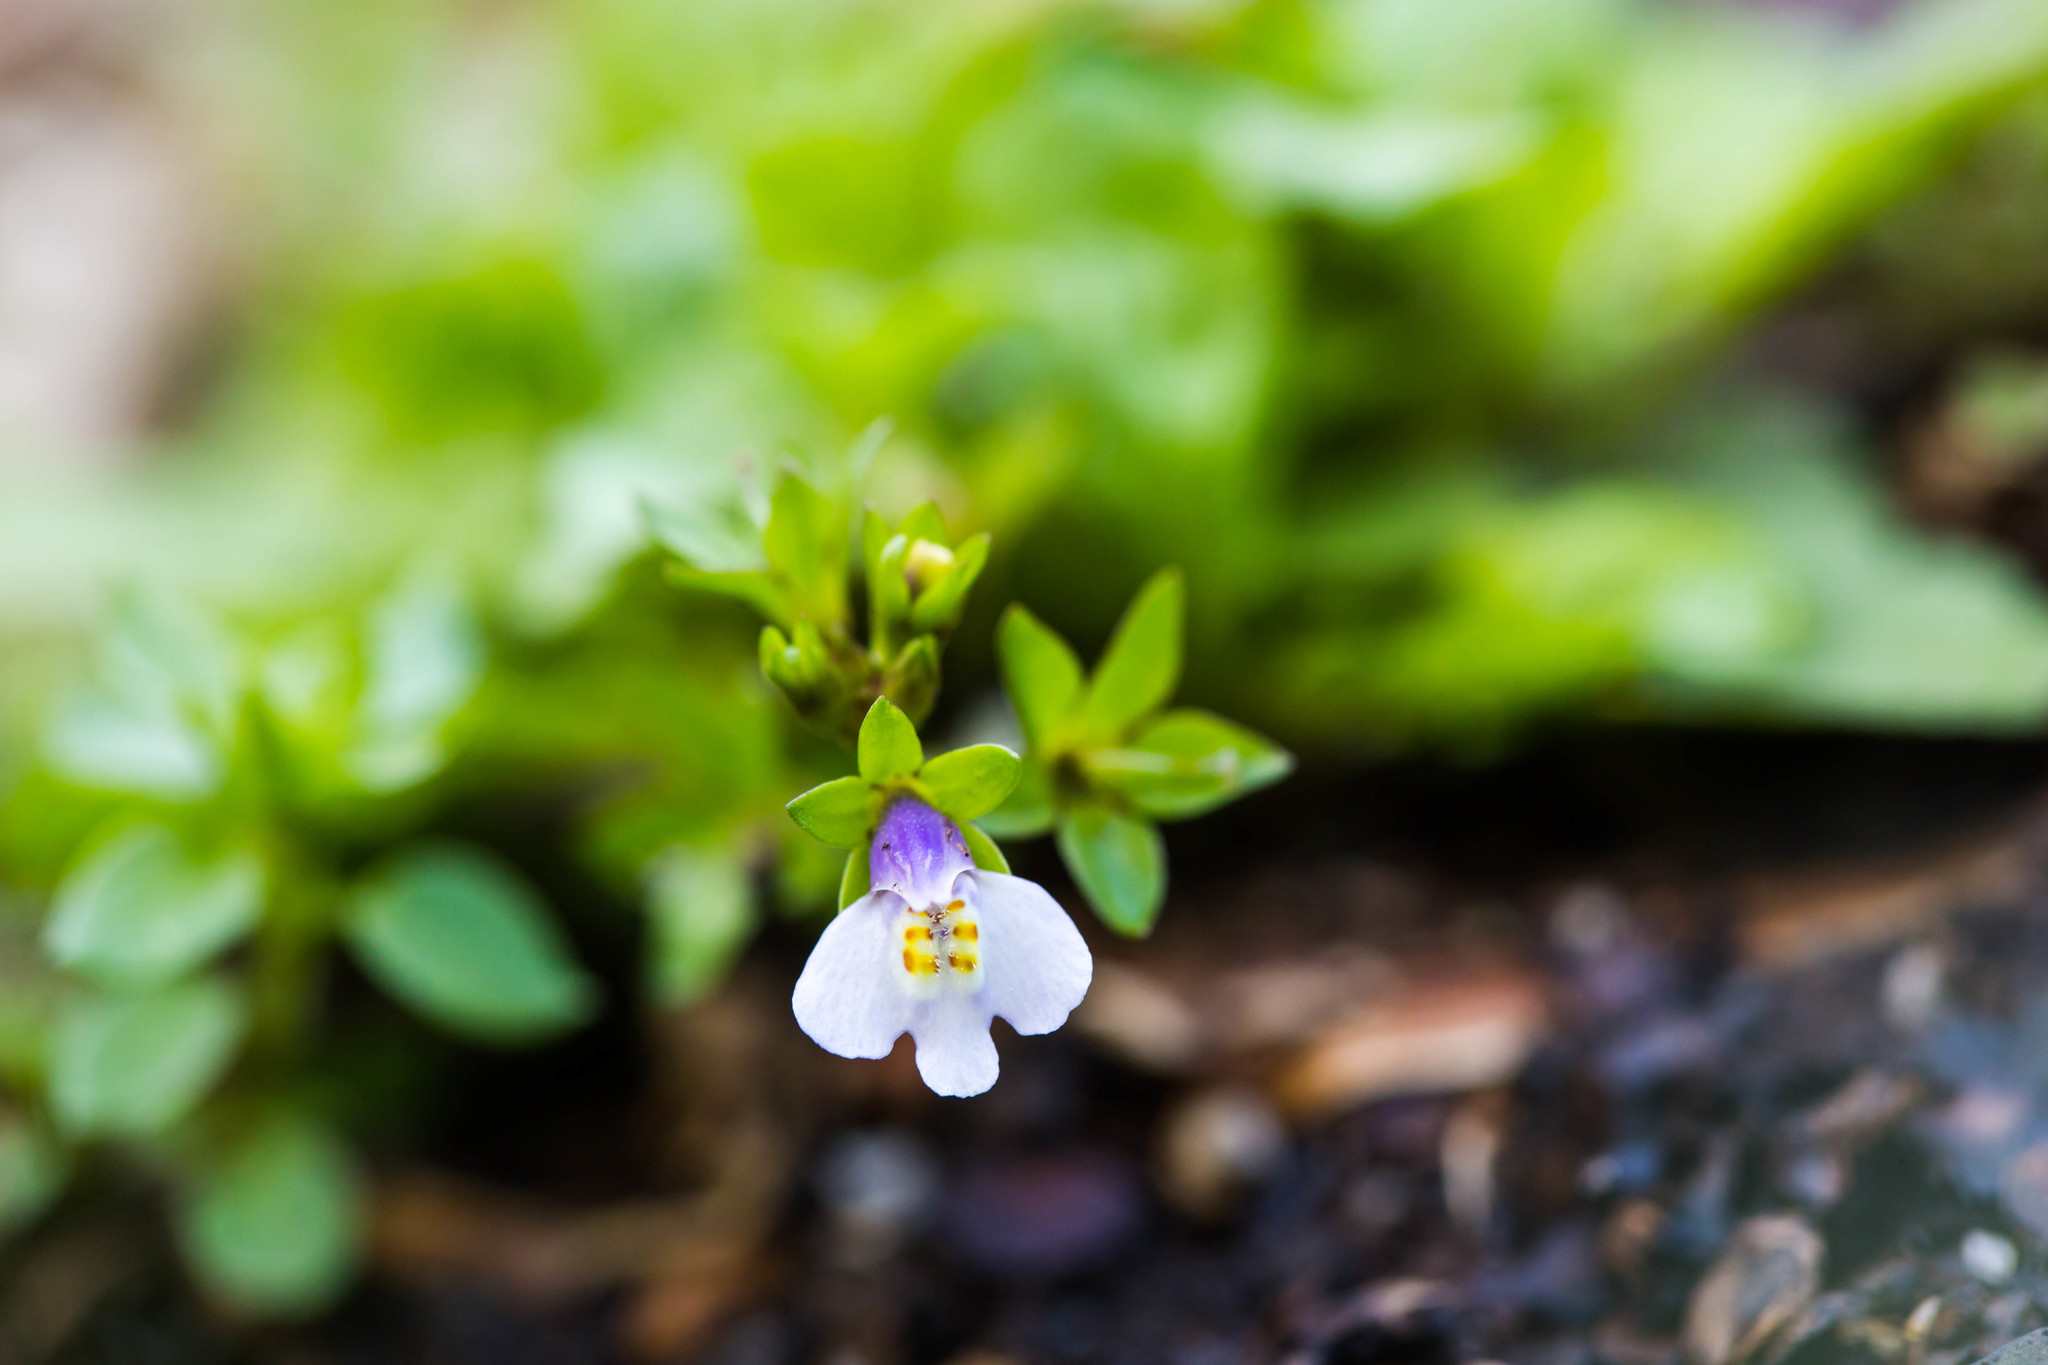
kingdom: Plantae
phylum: Tracheophyta
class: Magnoliopsida
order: Lamiales
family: Mazaceae
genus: Mazus
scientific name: Mazus pumilus
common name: Japanese mazus
